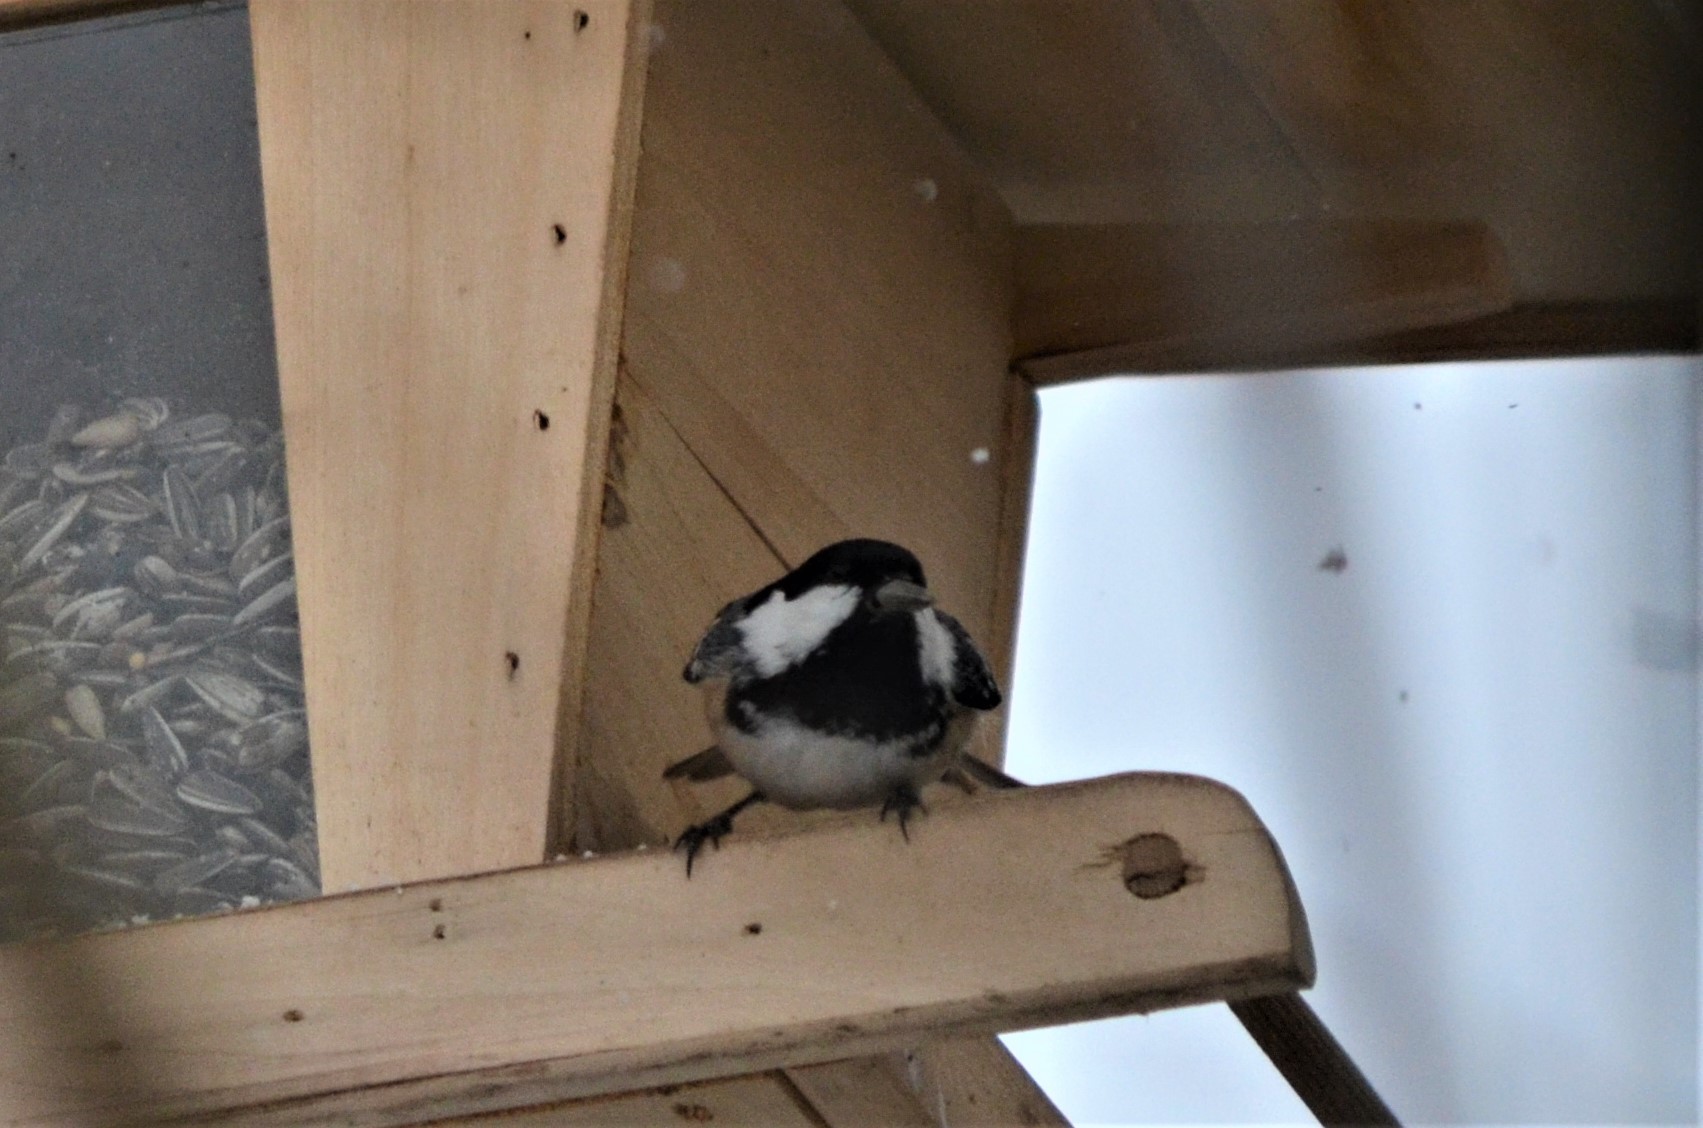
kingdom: Animalia
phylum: Chordata
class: Aves
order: Passeriformes
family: Paridae
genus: Periparus
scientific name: Periparus ater
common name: Coal tit
